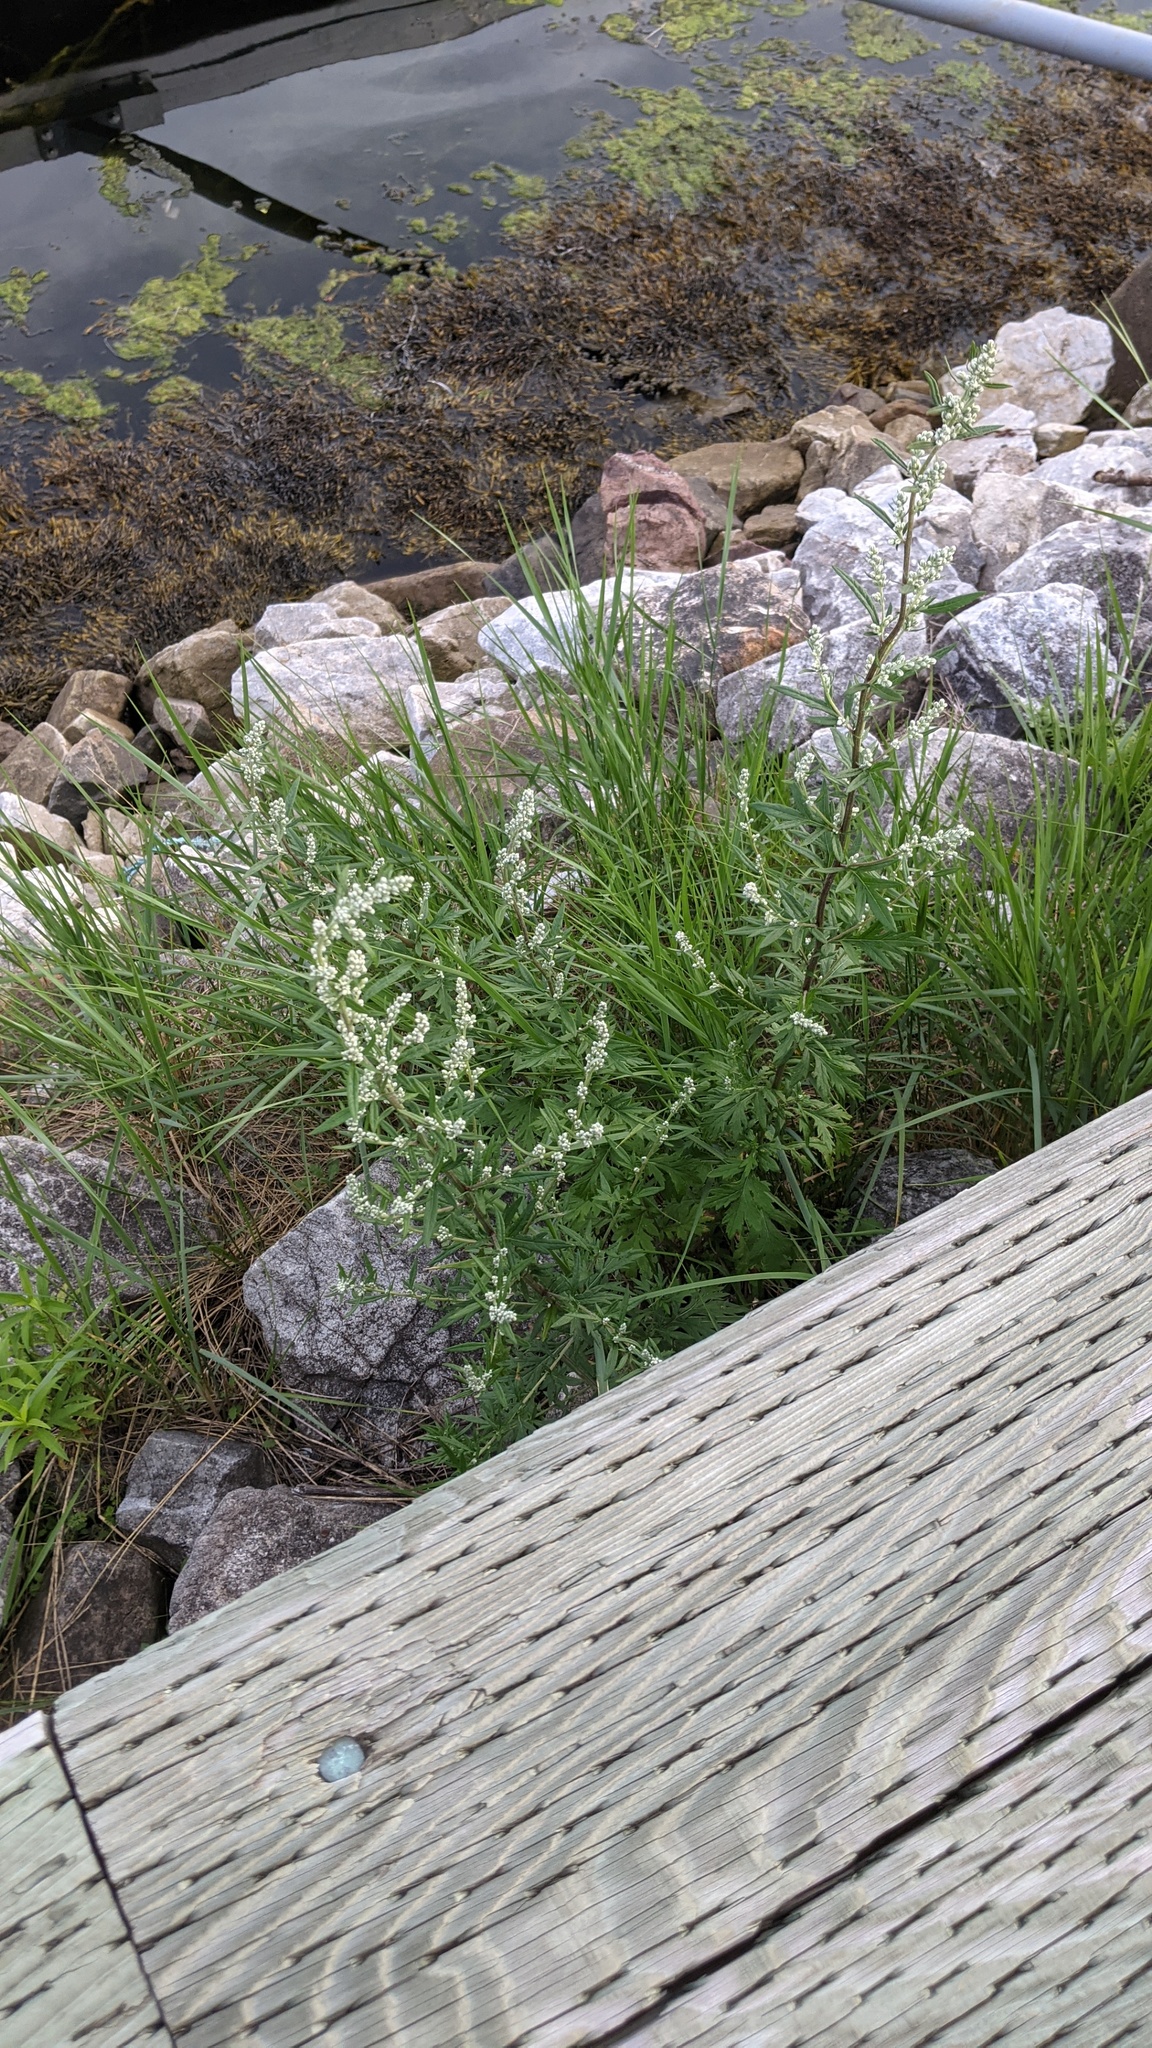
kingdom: Plantae
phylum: Tracheophyta
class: Magnoliopsida
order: Asterales
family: Asteraceae
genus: Artemisia
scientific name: Artemisia vulgaris
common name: Mugwort
